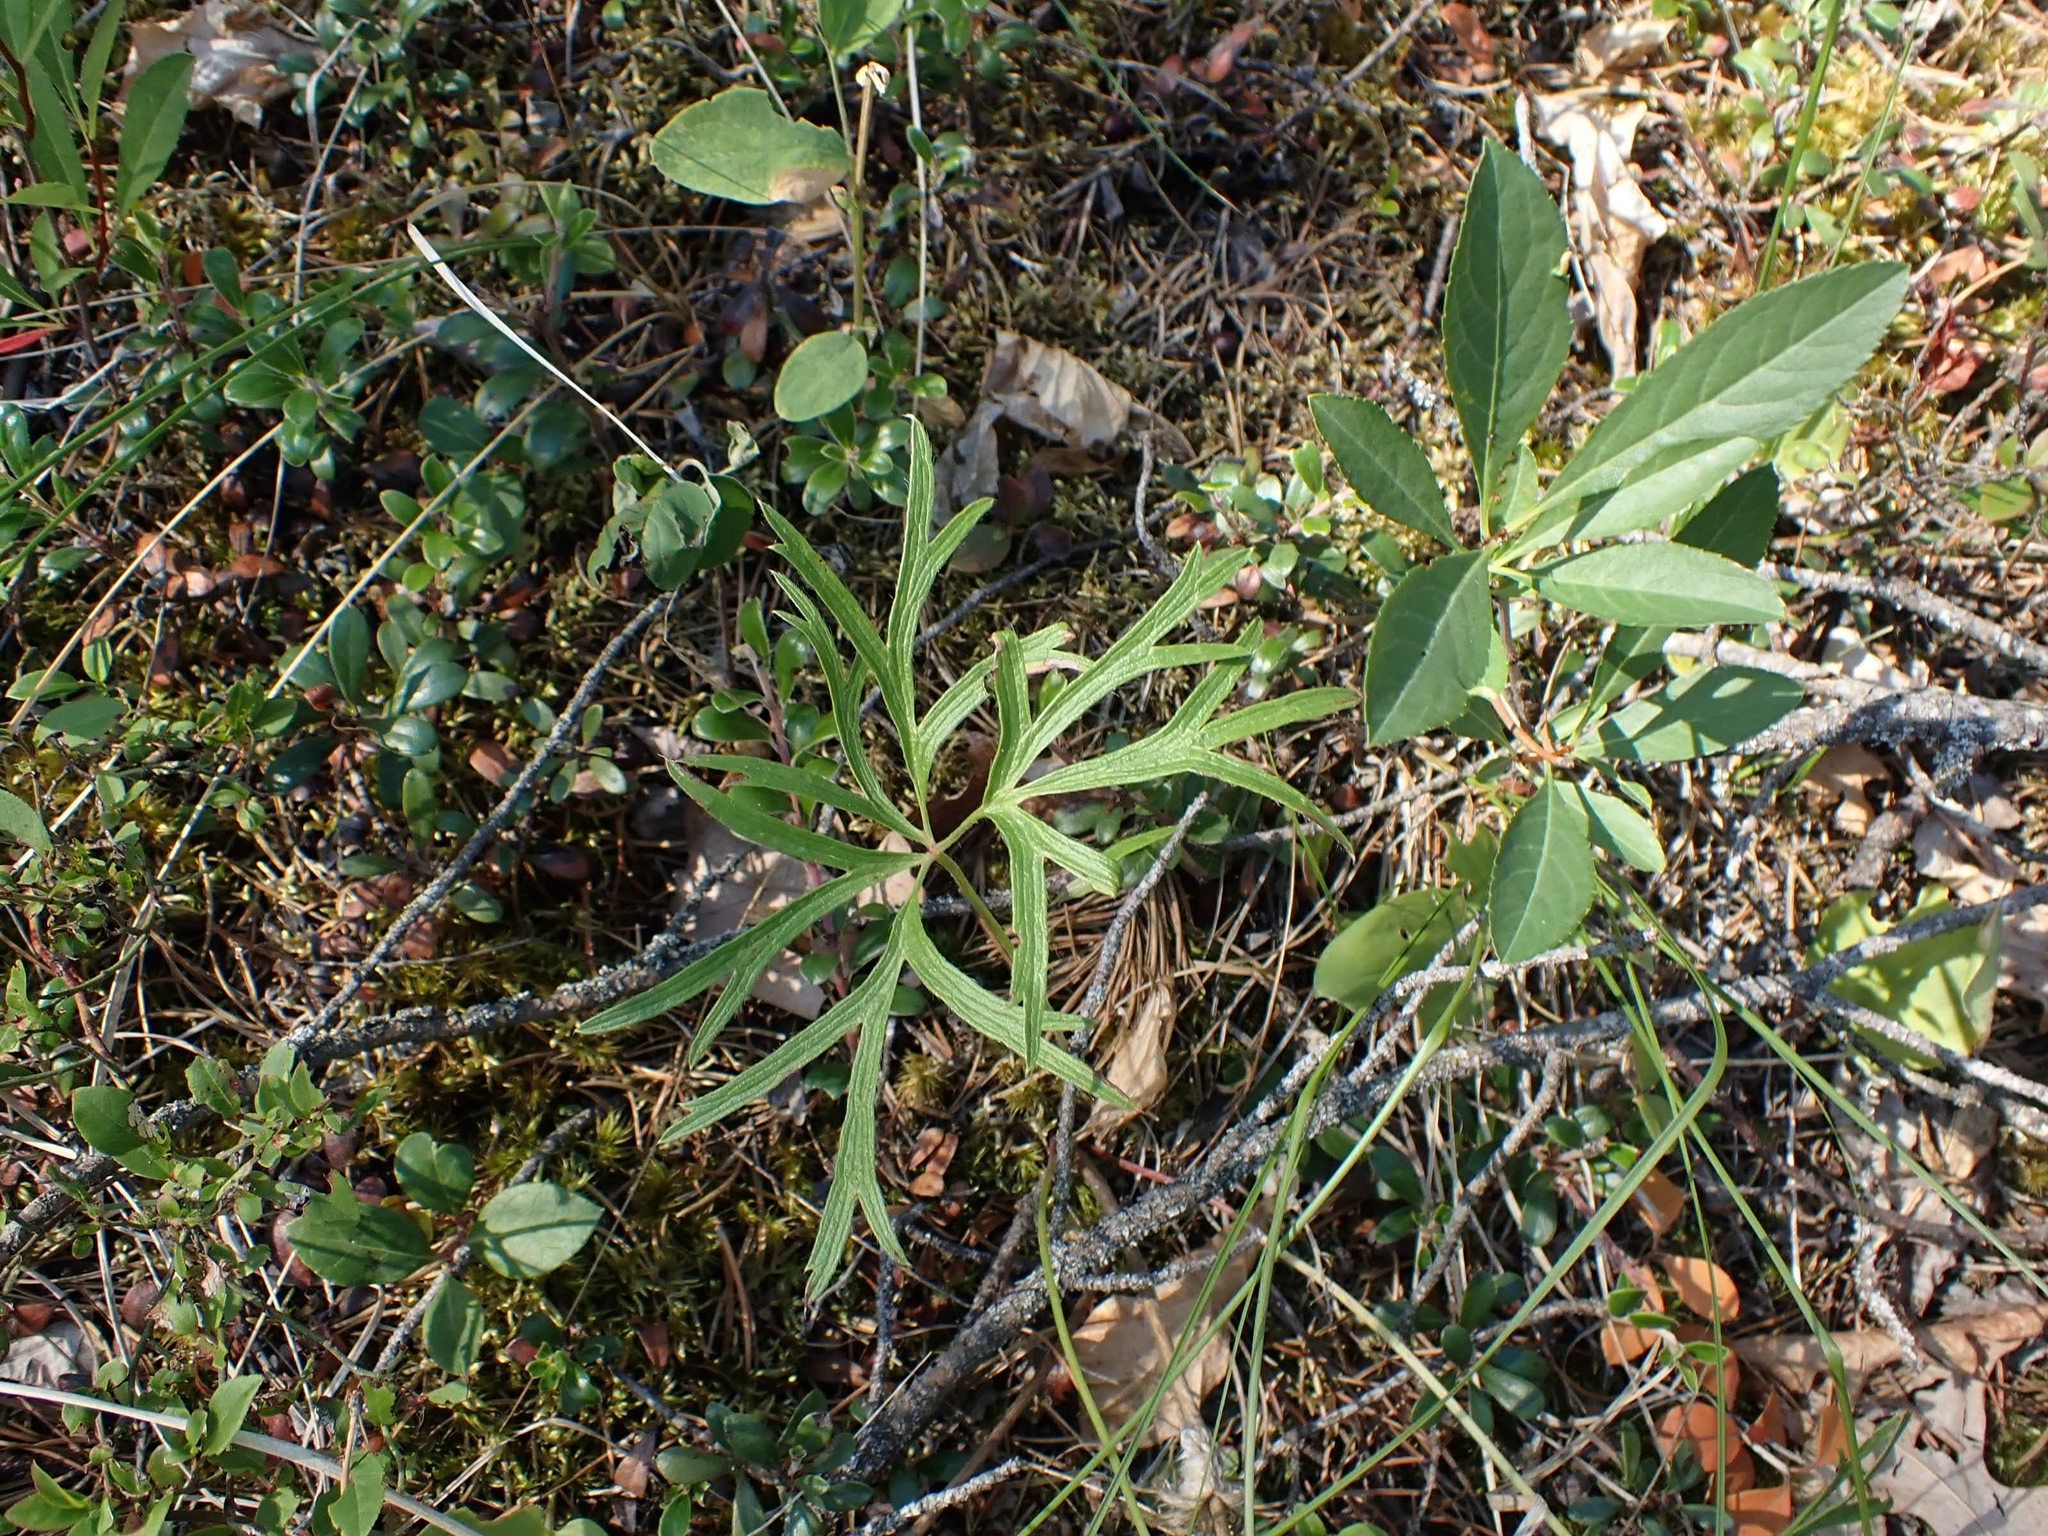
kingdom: Plantae
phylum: Tracheophyta
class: Magnoliopsida
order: Ranunculales
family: Ranunculaceae
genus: Pulsatilla
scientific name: Pulsatilla nuttalliana
